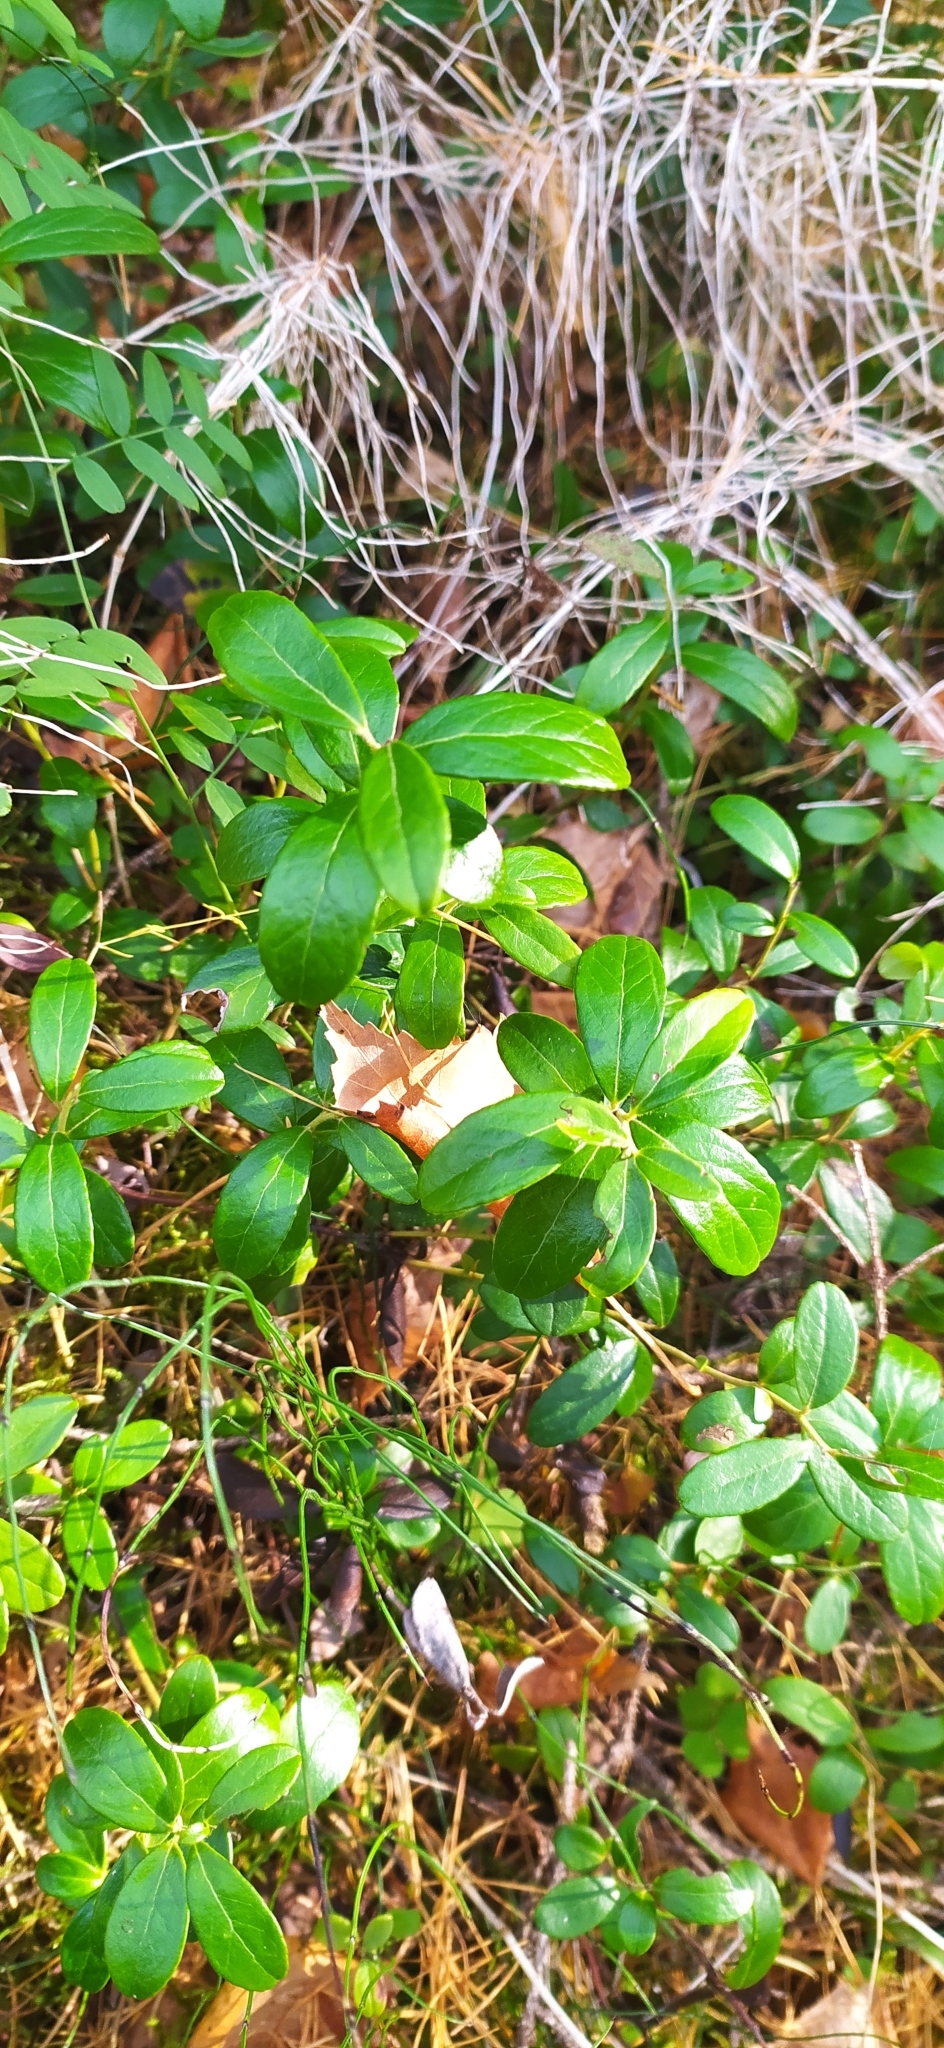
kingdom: Plantae
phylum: Tracheophyta
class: Magnoliopsida
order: Ericales
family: Ericaceae
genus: Vaccinium
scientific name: Vaccinium vitis-idaea
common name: Cowberry
